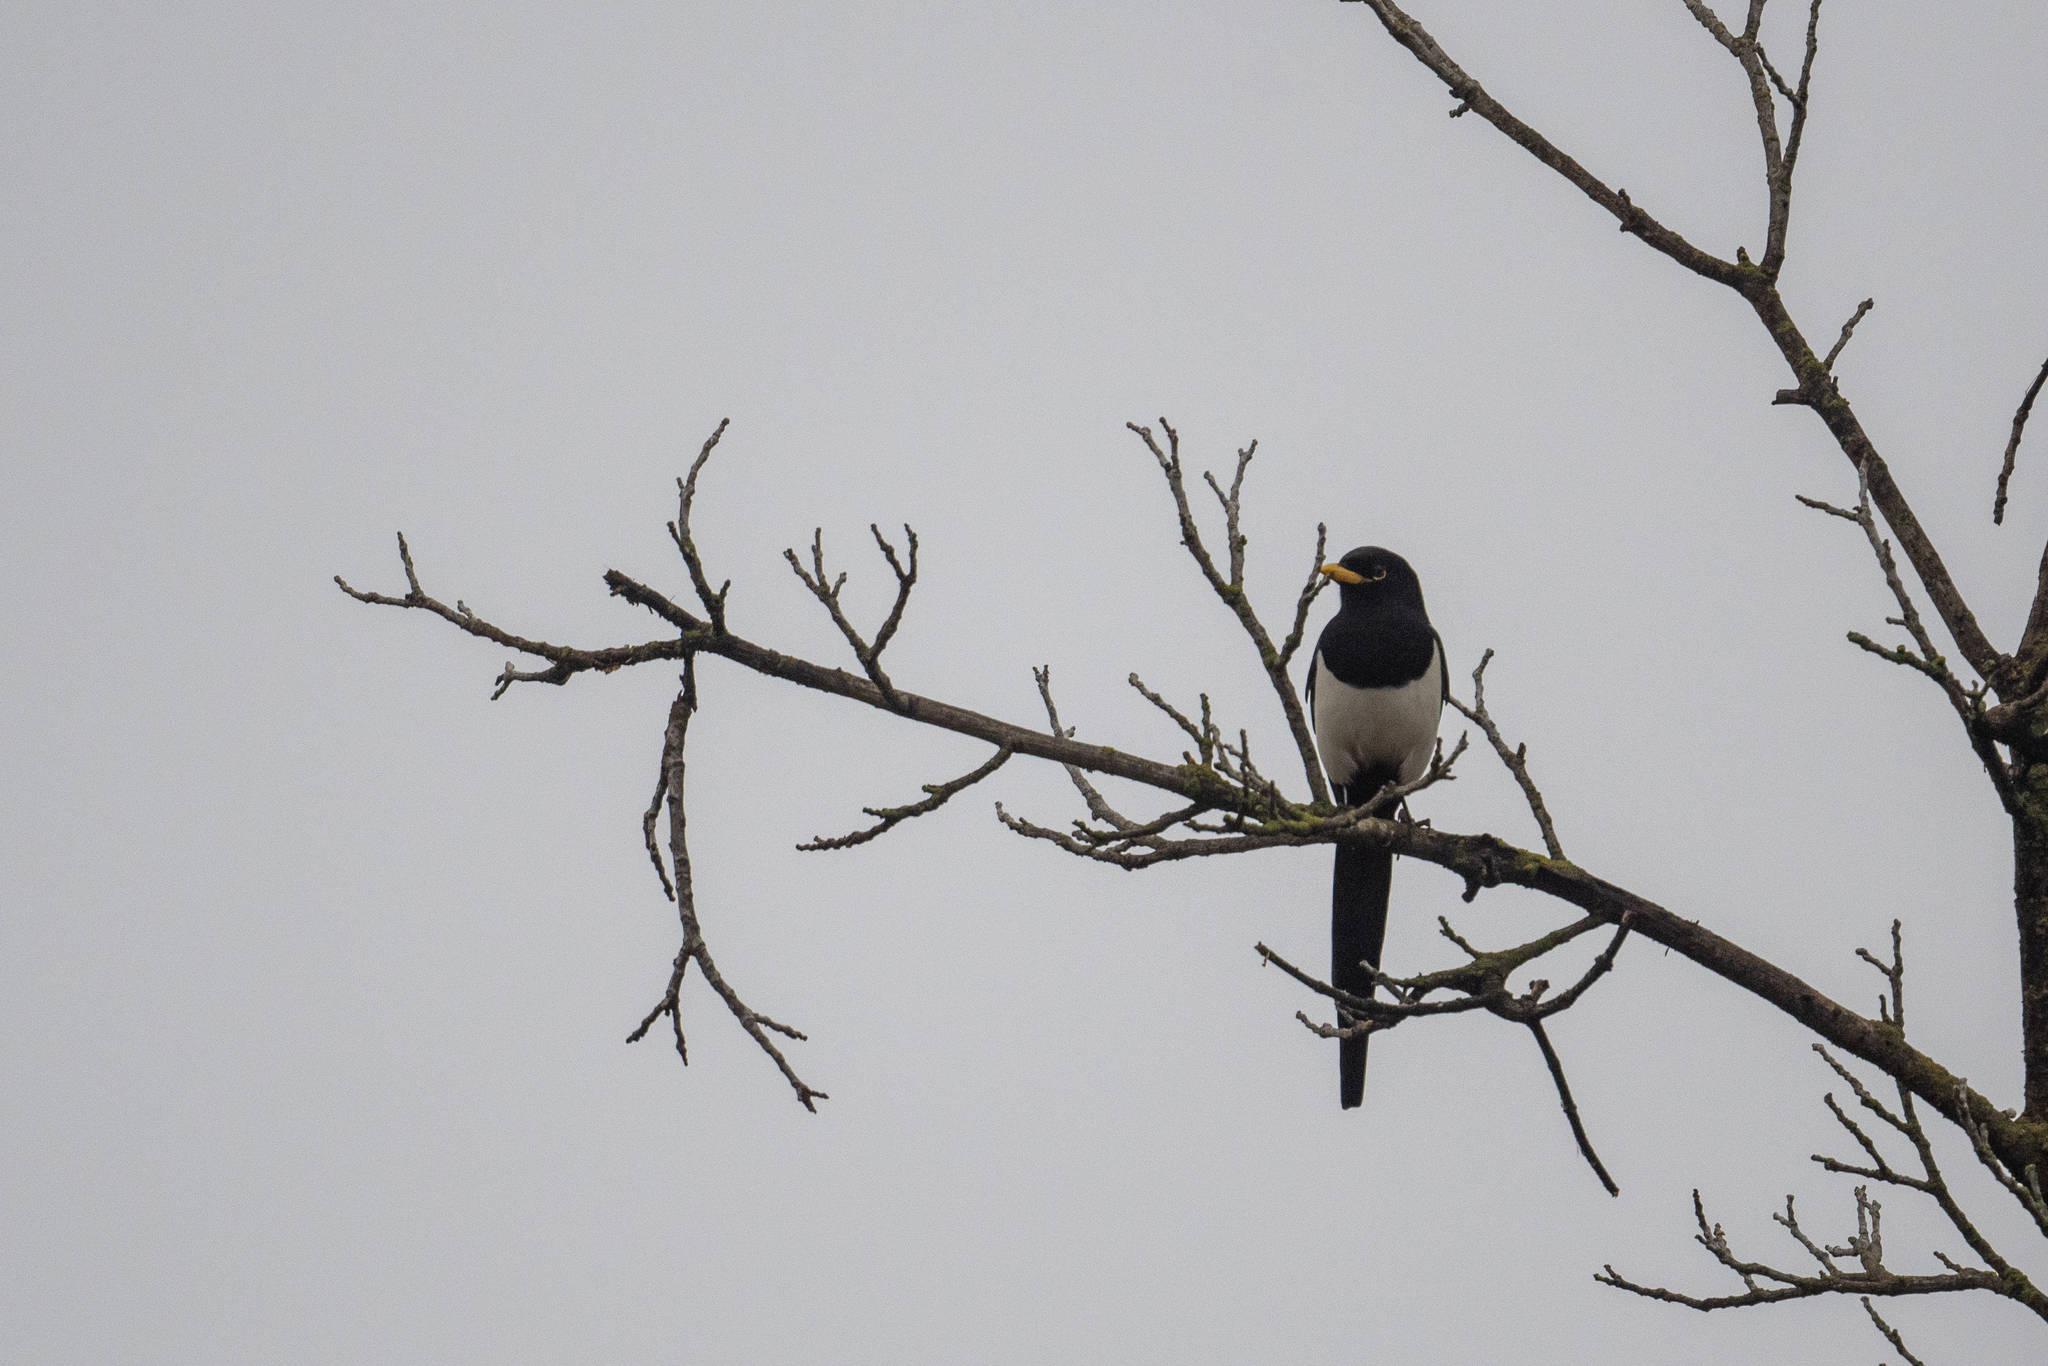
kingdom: Animalia
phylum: Chordata
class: Aves
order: Passeriformes
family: Corvidae
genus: Pica
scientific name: Pica nuttalli
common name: Yellow-billed magpie
